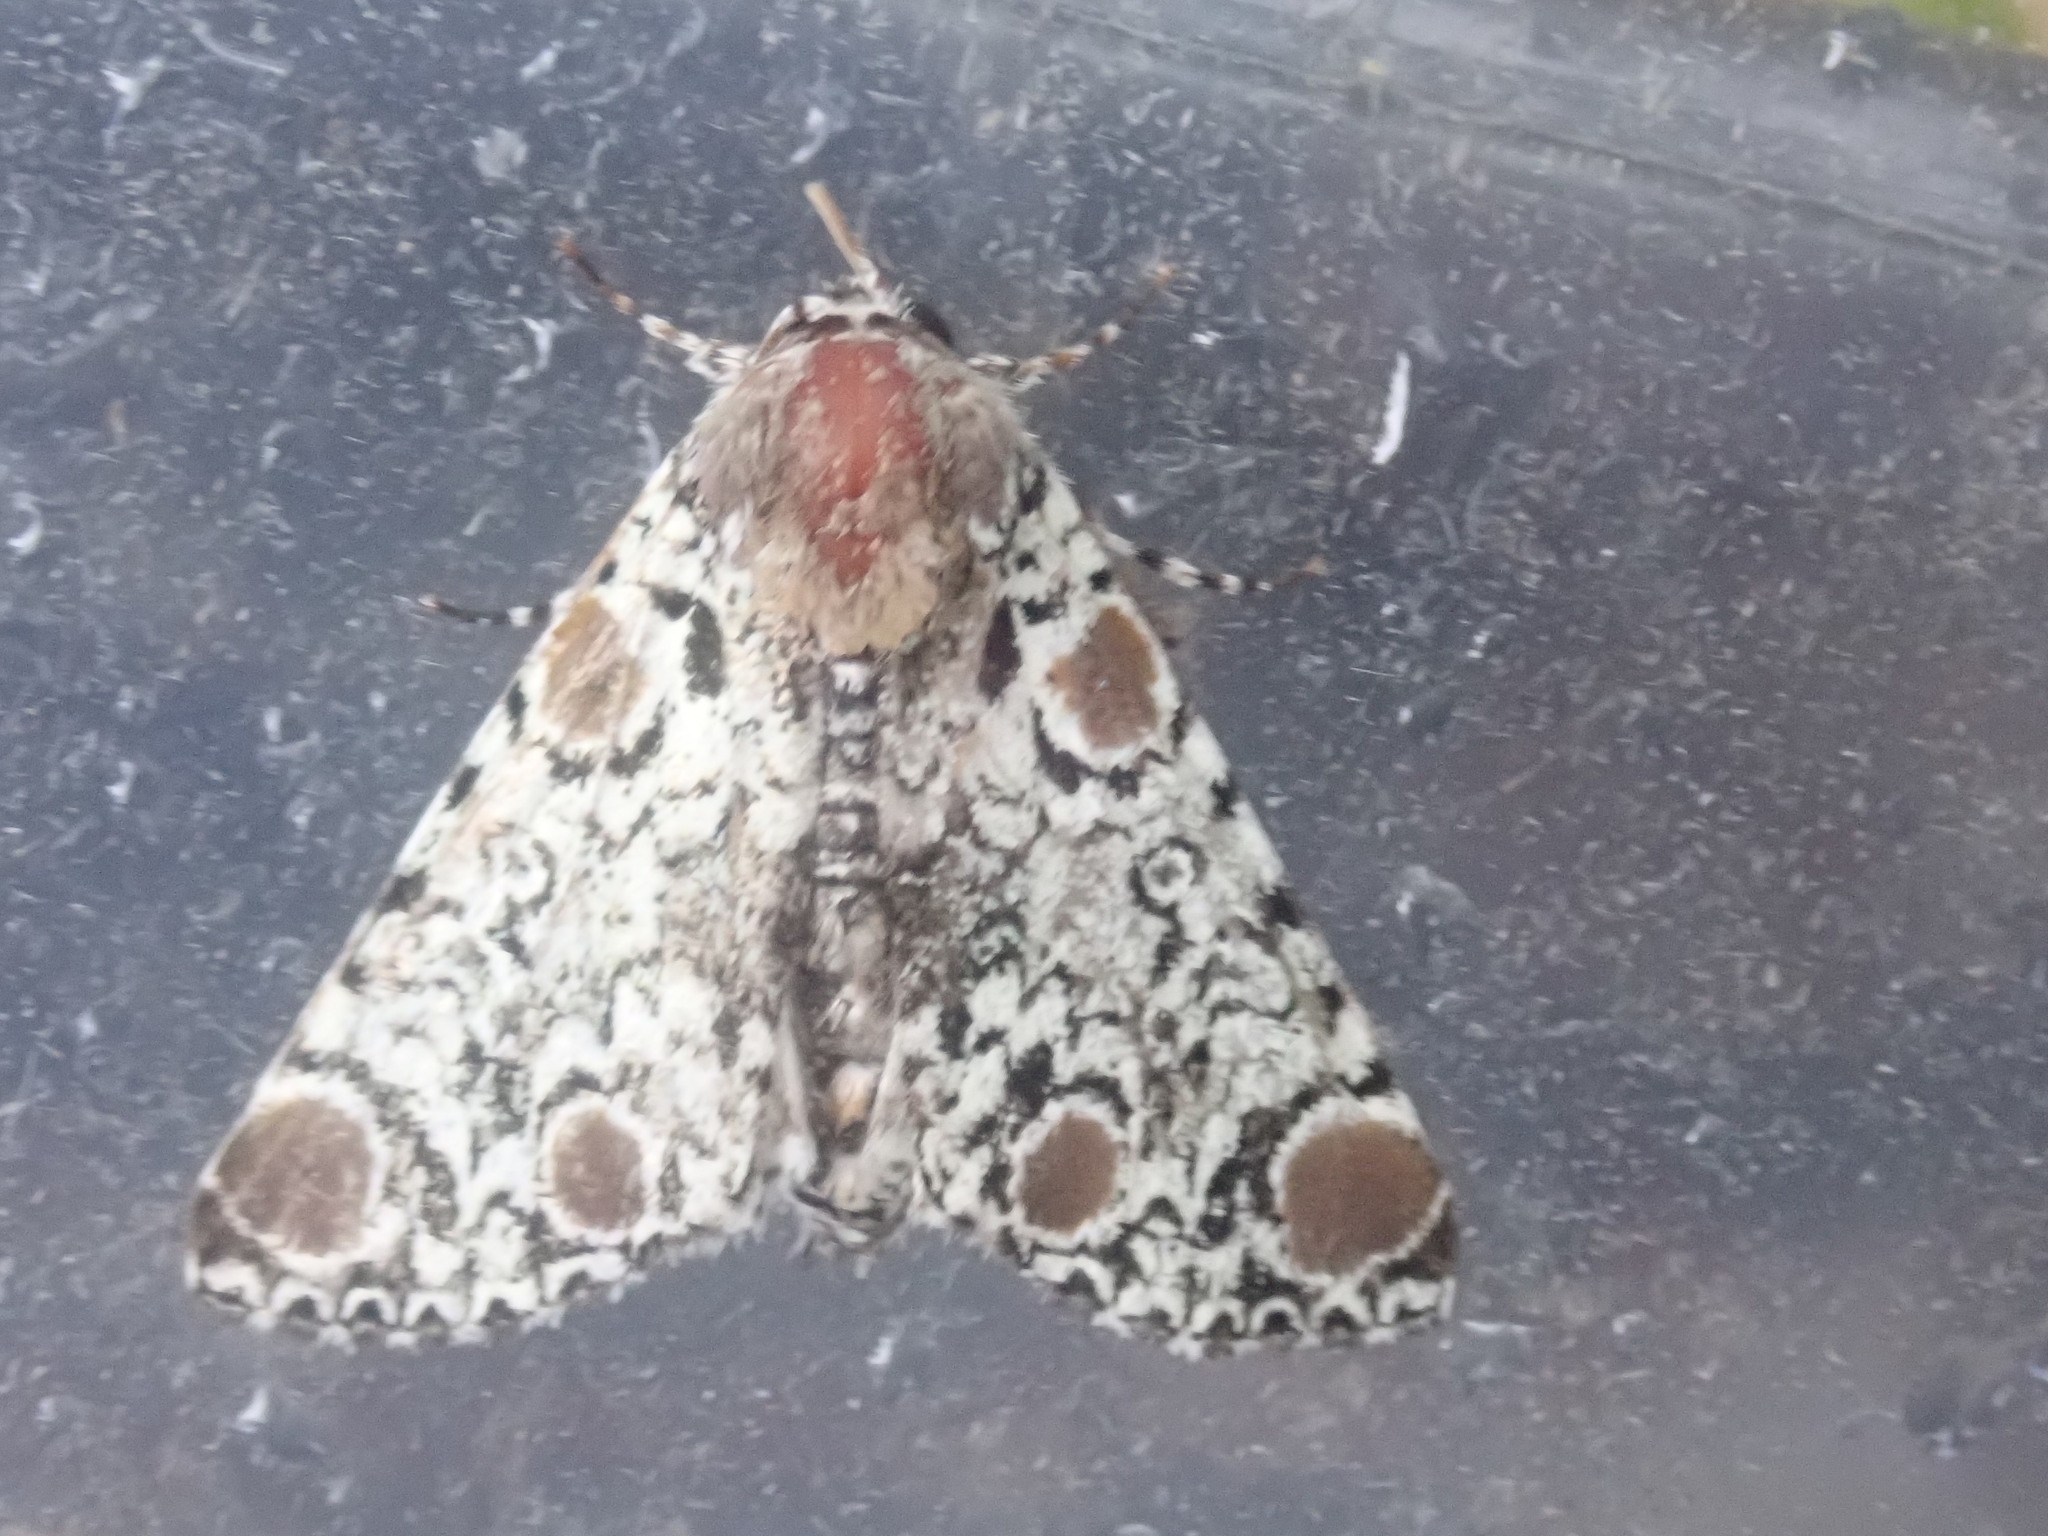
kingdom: Animalia
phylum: Arthropoda
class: Insecta
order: Lepidoptera
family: Noctuidae
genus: Harrisimemna
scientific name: Harrisimemna trisignata
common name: Harris threespot
